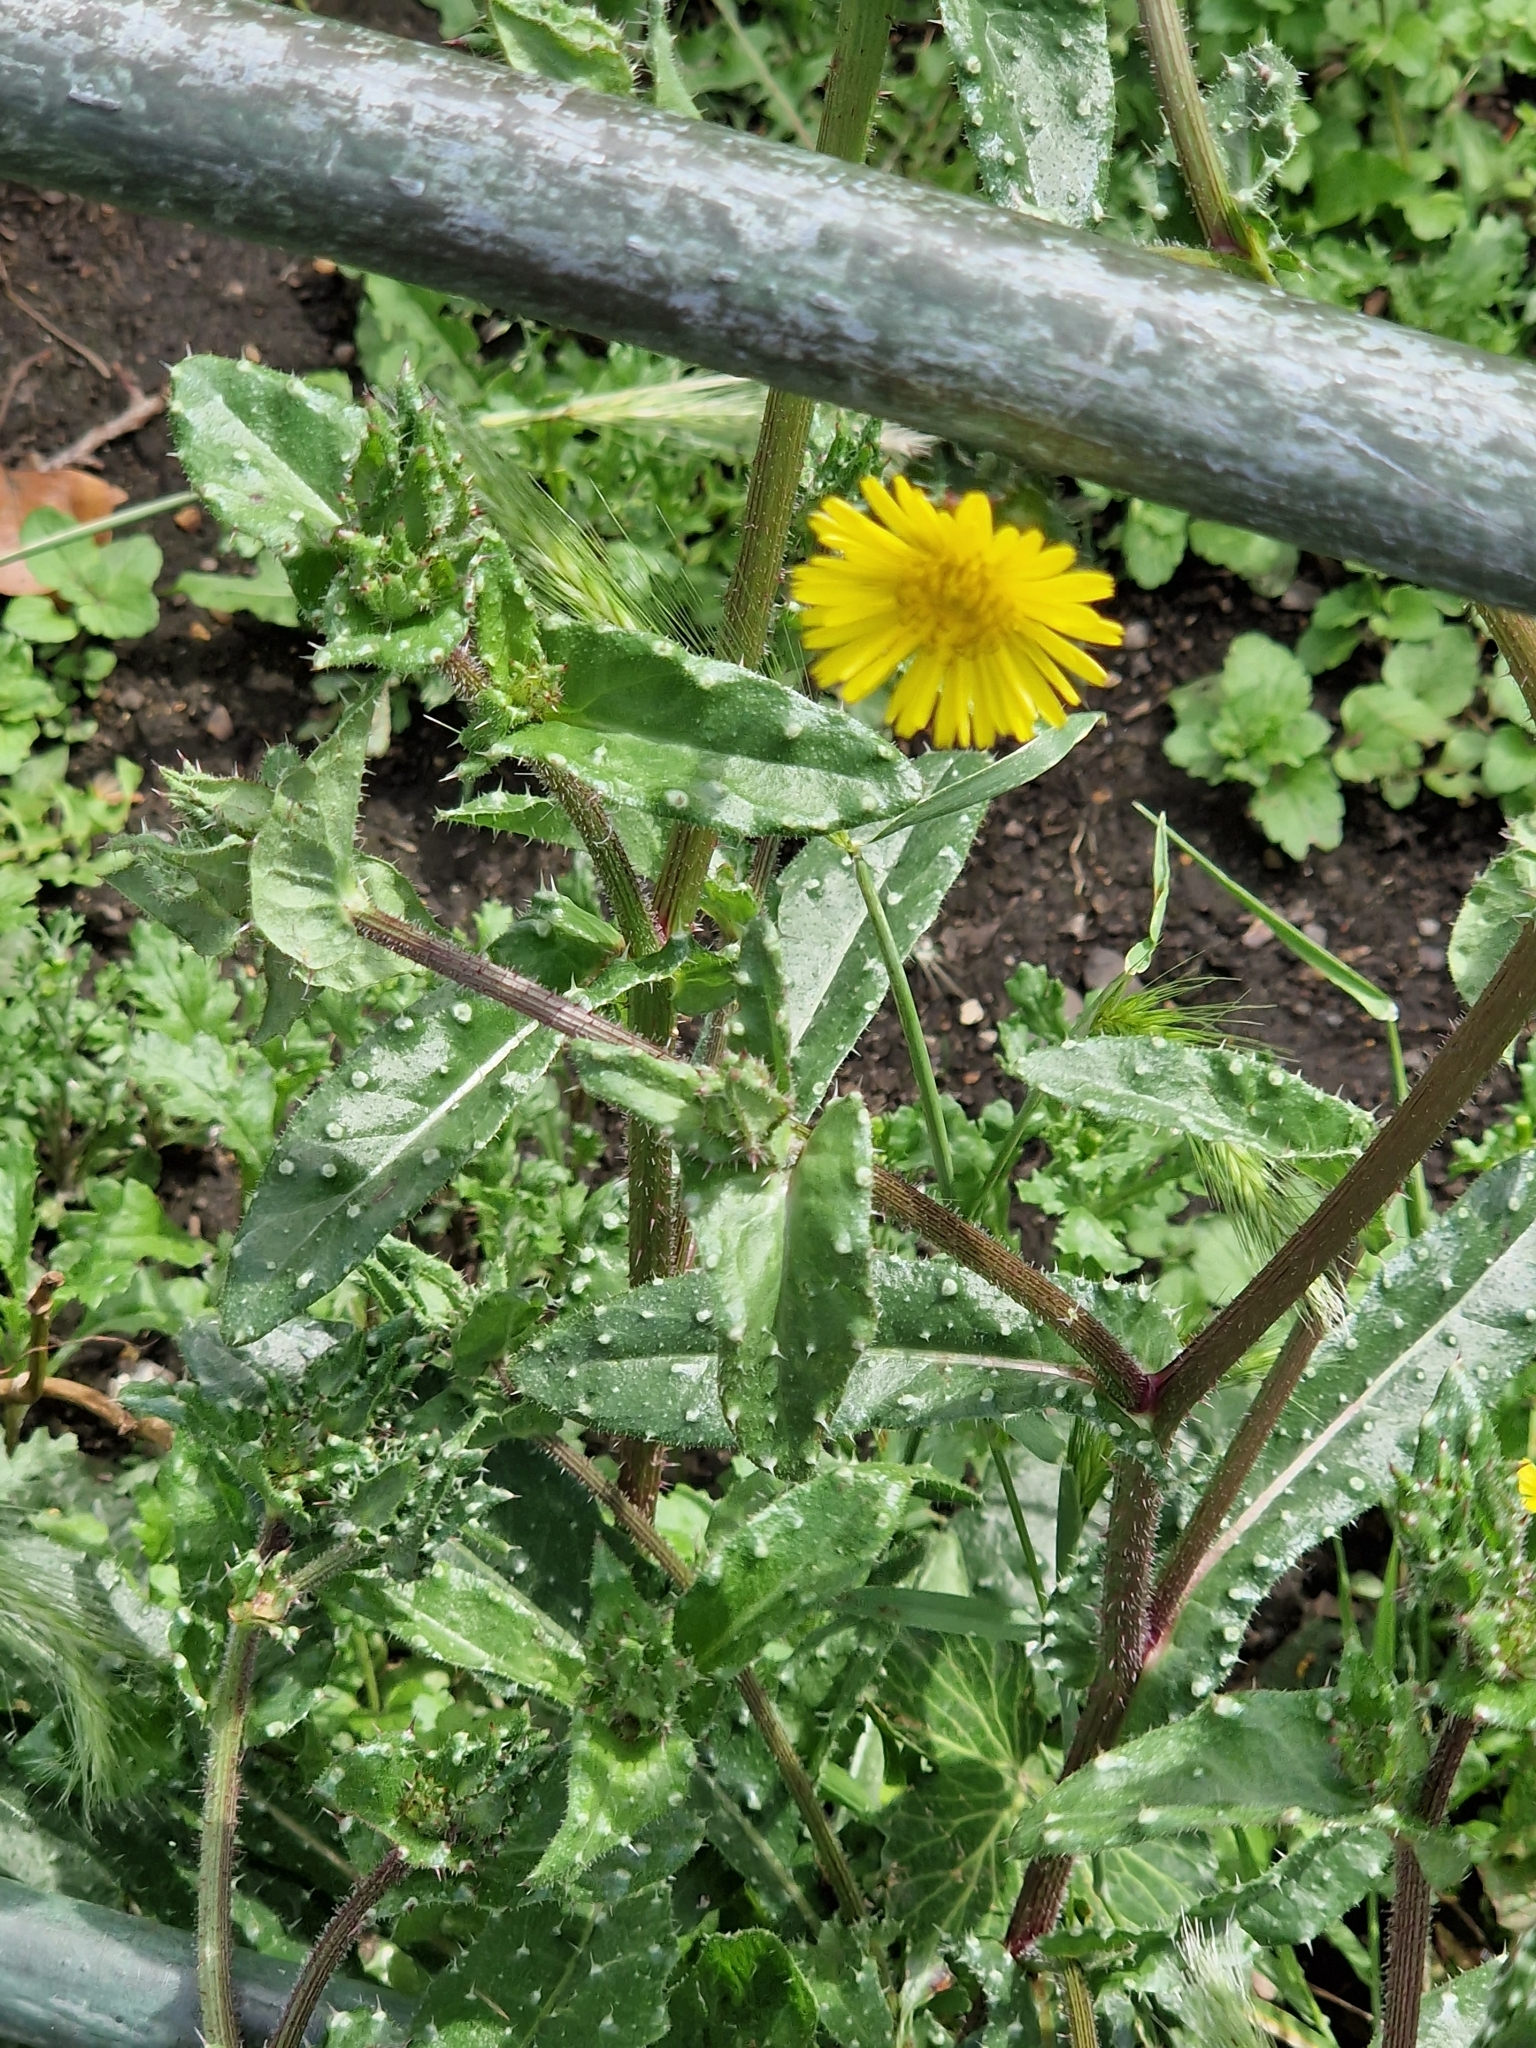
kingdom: Plantae
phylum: Tracheophyta
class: Magnoliopsida
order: Asterales
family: Asteraceae
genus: Helminthotheca
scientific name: Helminthotheca echioides
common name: Ox-tongue
